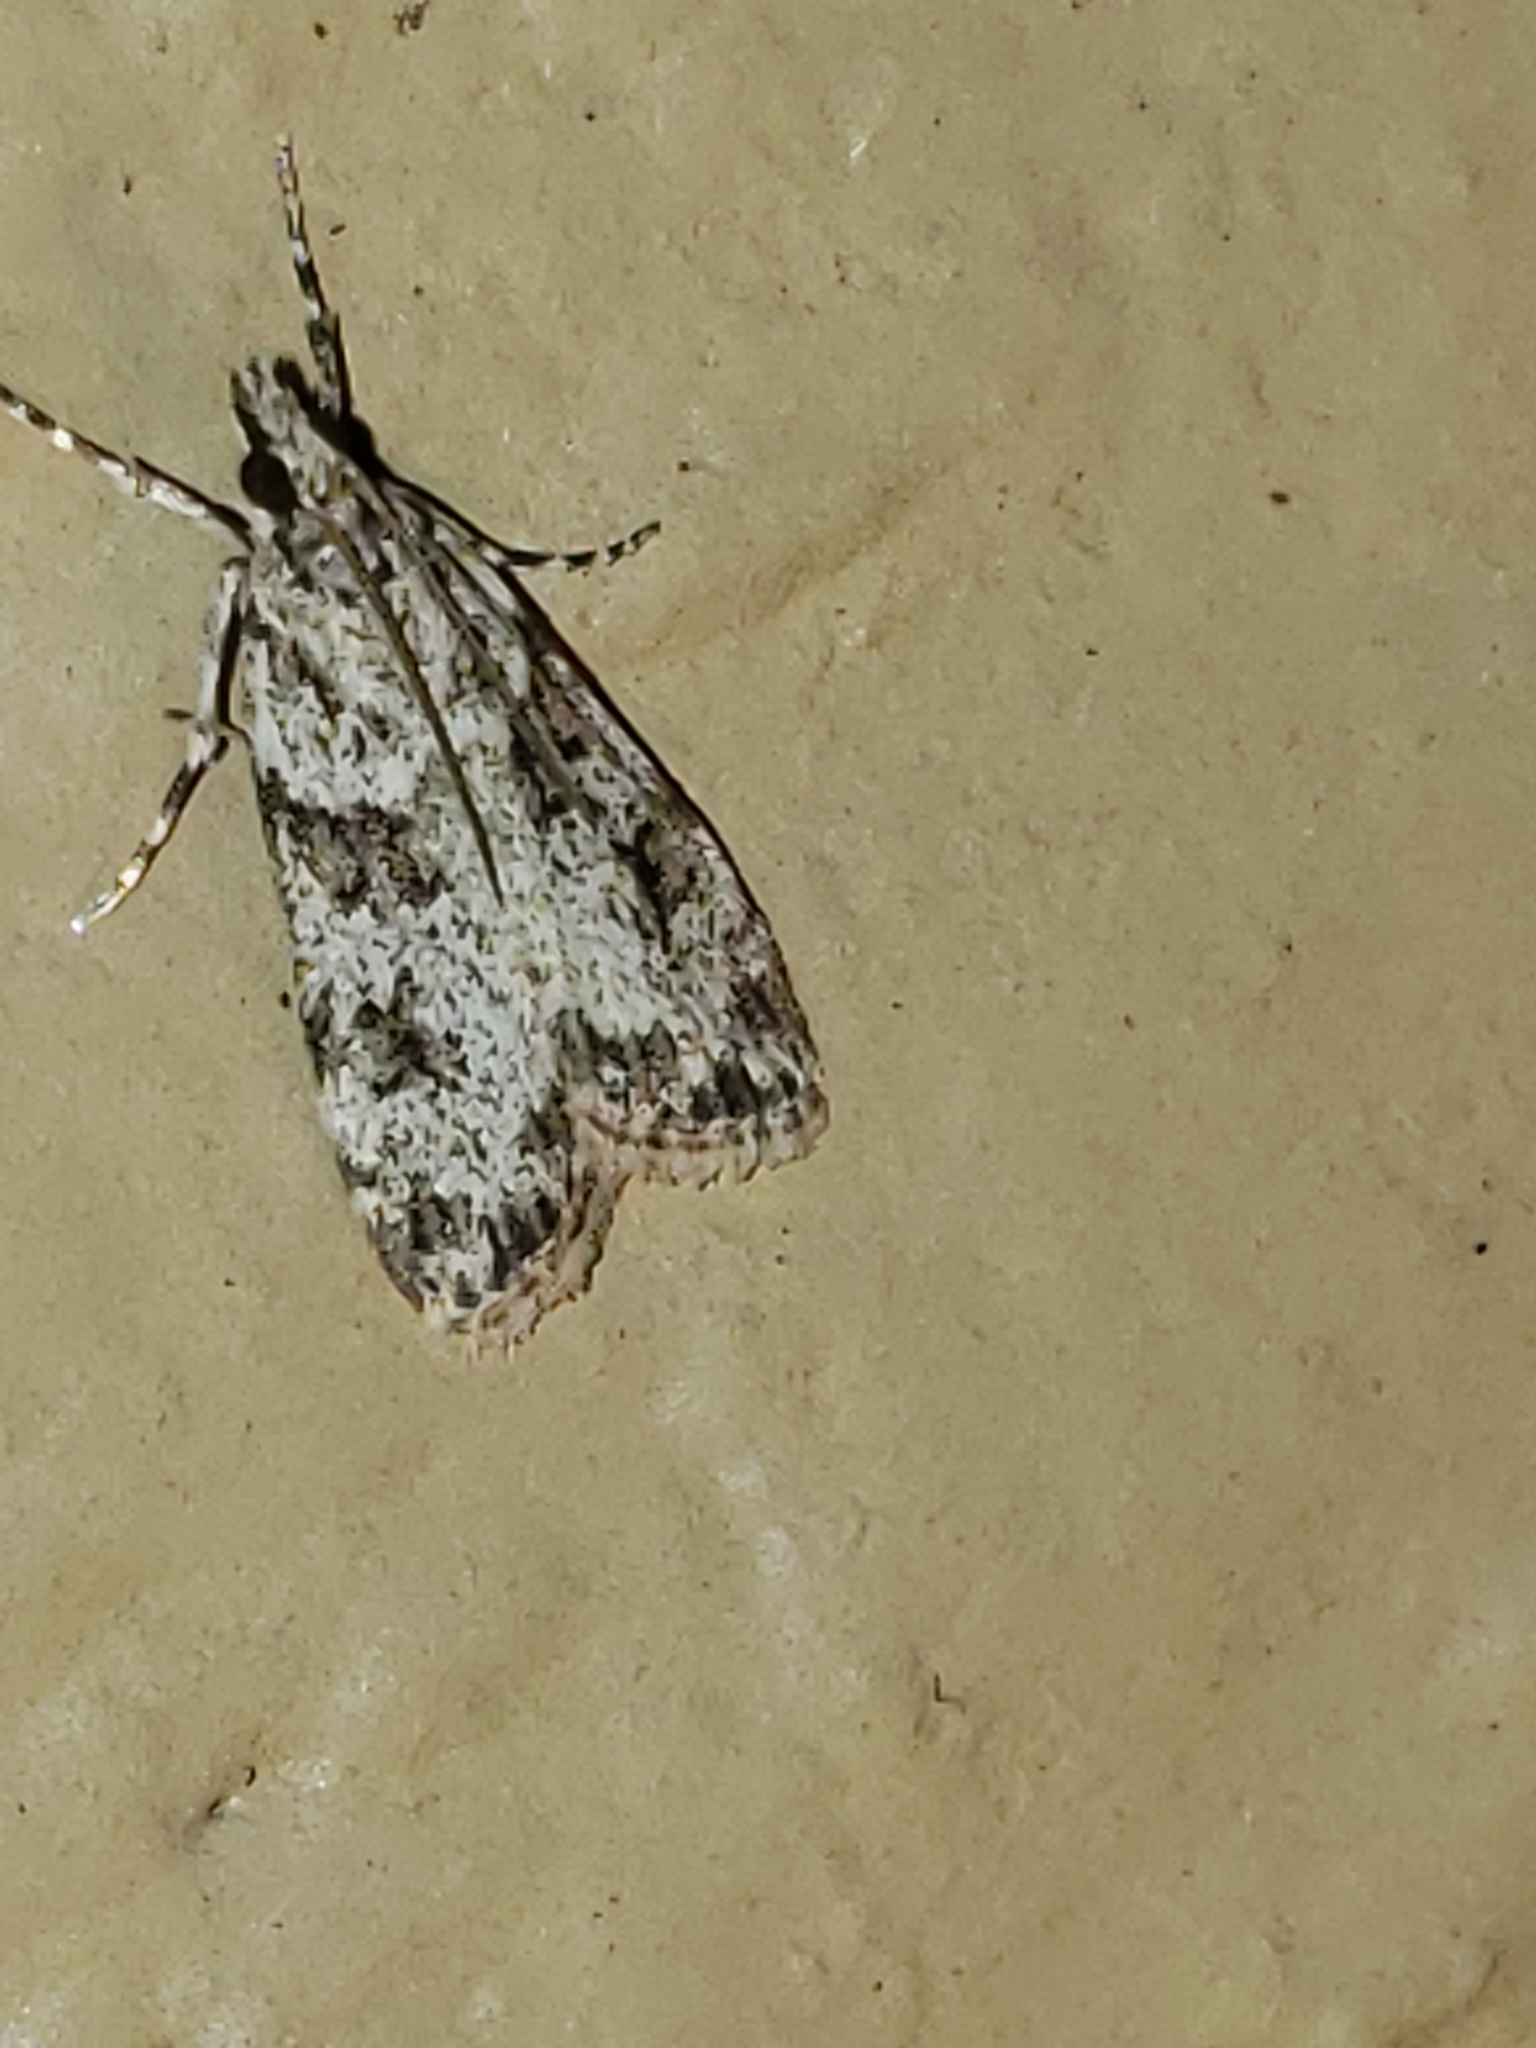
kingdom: Animalia
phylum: Arthropoda
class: Insecta
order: Lepidoptera
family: Crambidae
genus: Scoparia
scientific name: Scoparia biplagialis
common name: Double-striped scoparia moth
